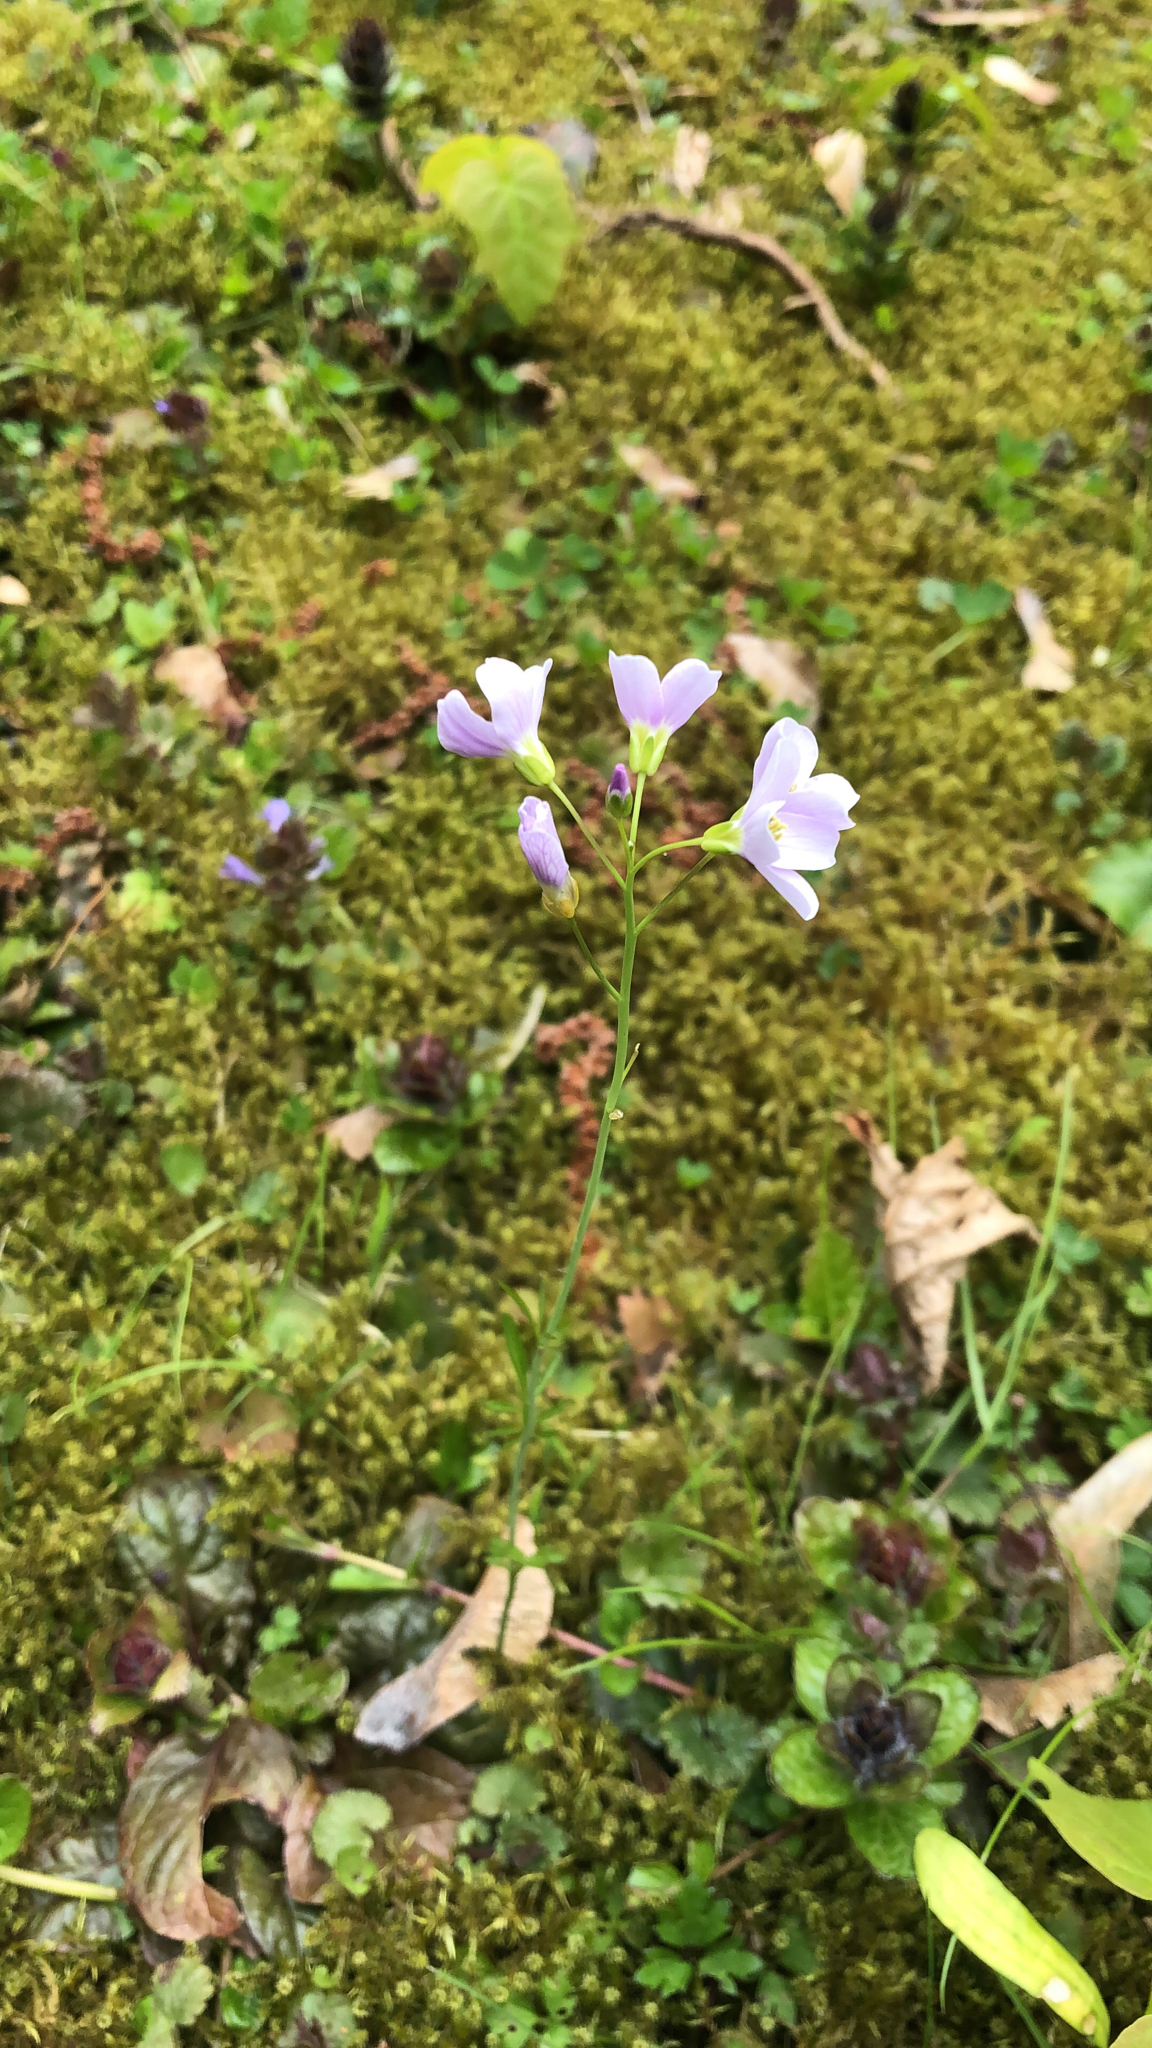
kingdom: Plantae
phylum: Tracheophyta
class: Magnoliopsida
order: Brassicales
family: Brassicaceae
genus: Cardamine
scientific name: Cardamine pratensis
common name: Cuckoo flower
